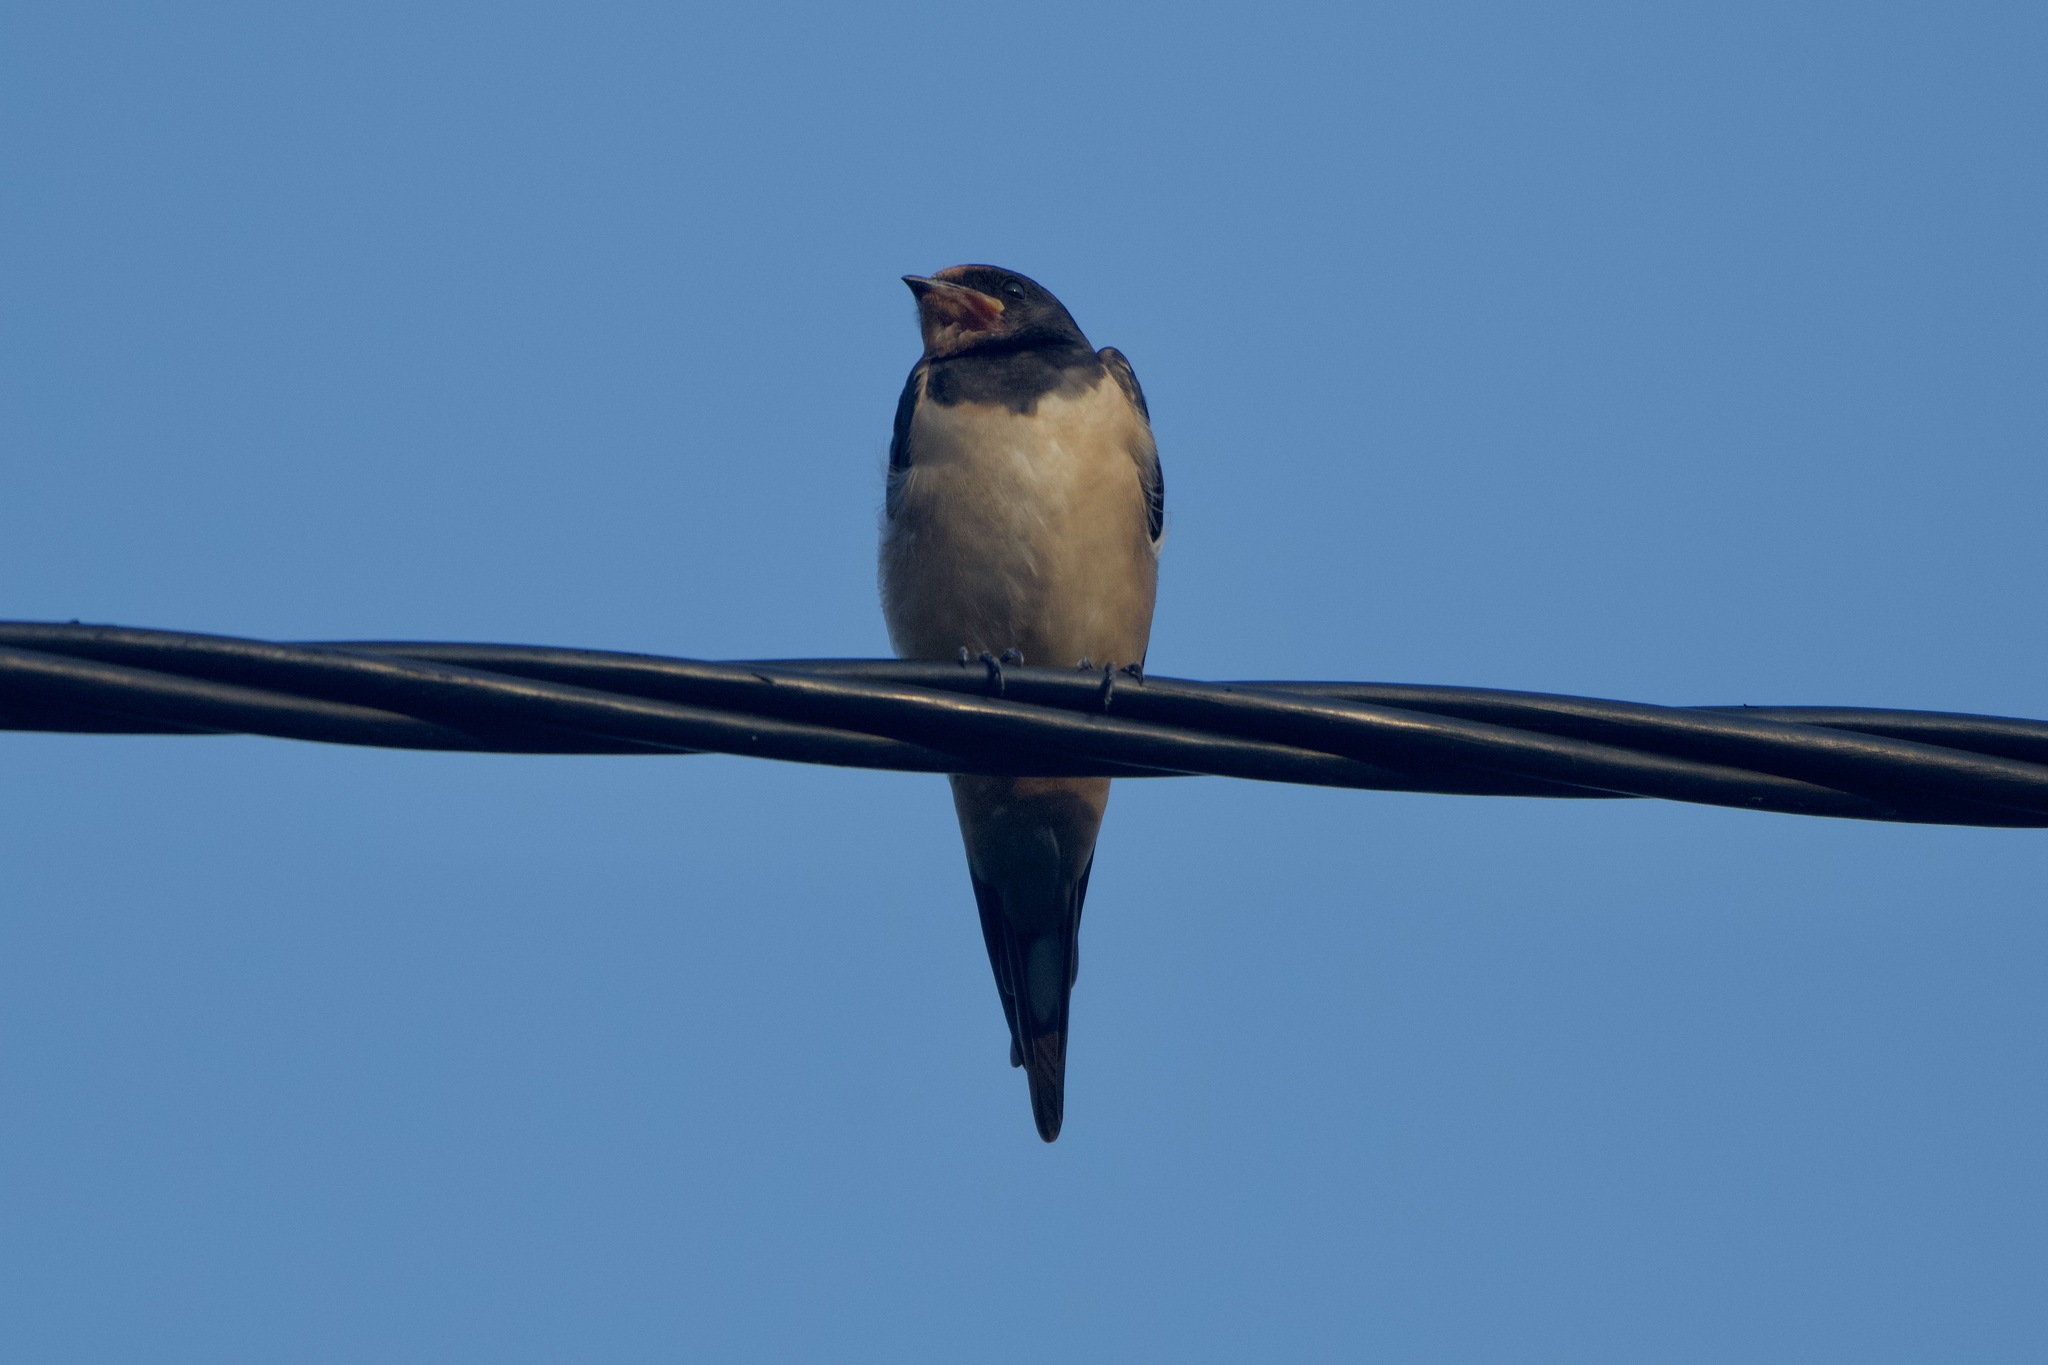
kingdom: Animalia
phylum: Chordata
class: Aves
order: Passeriformes
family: Hirundinidae
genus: Hirundo
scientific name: Hirundo rustica
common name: Barn swallow
